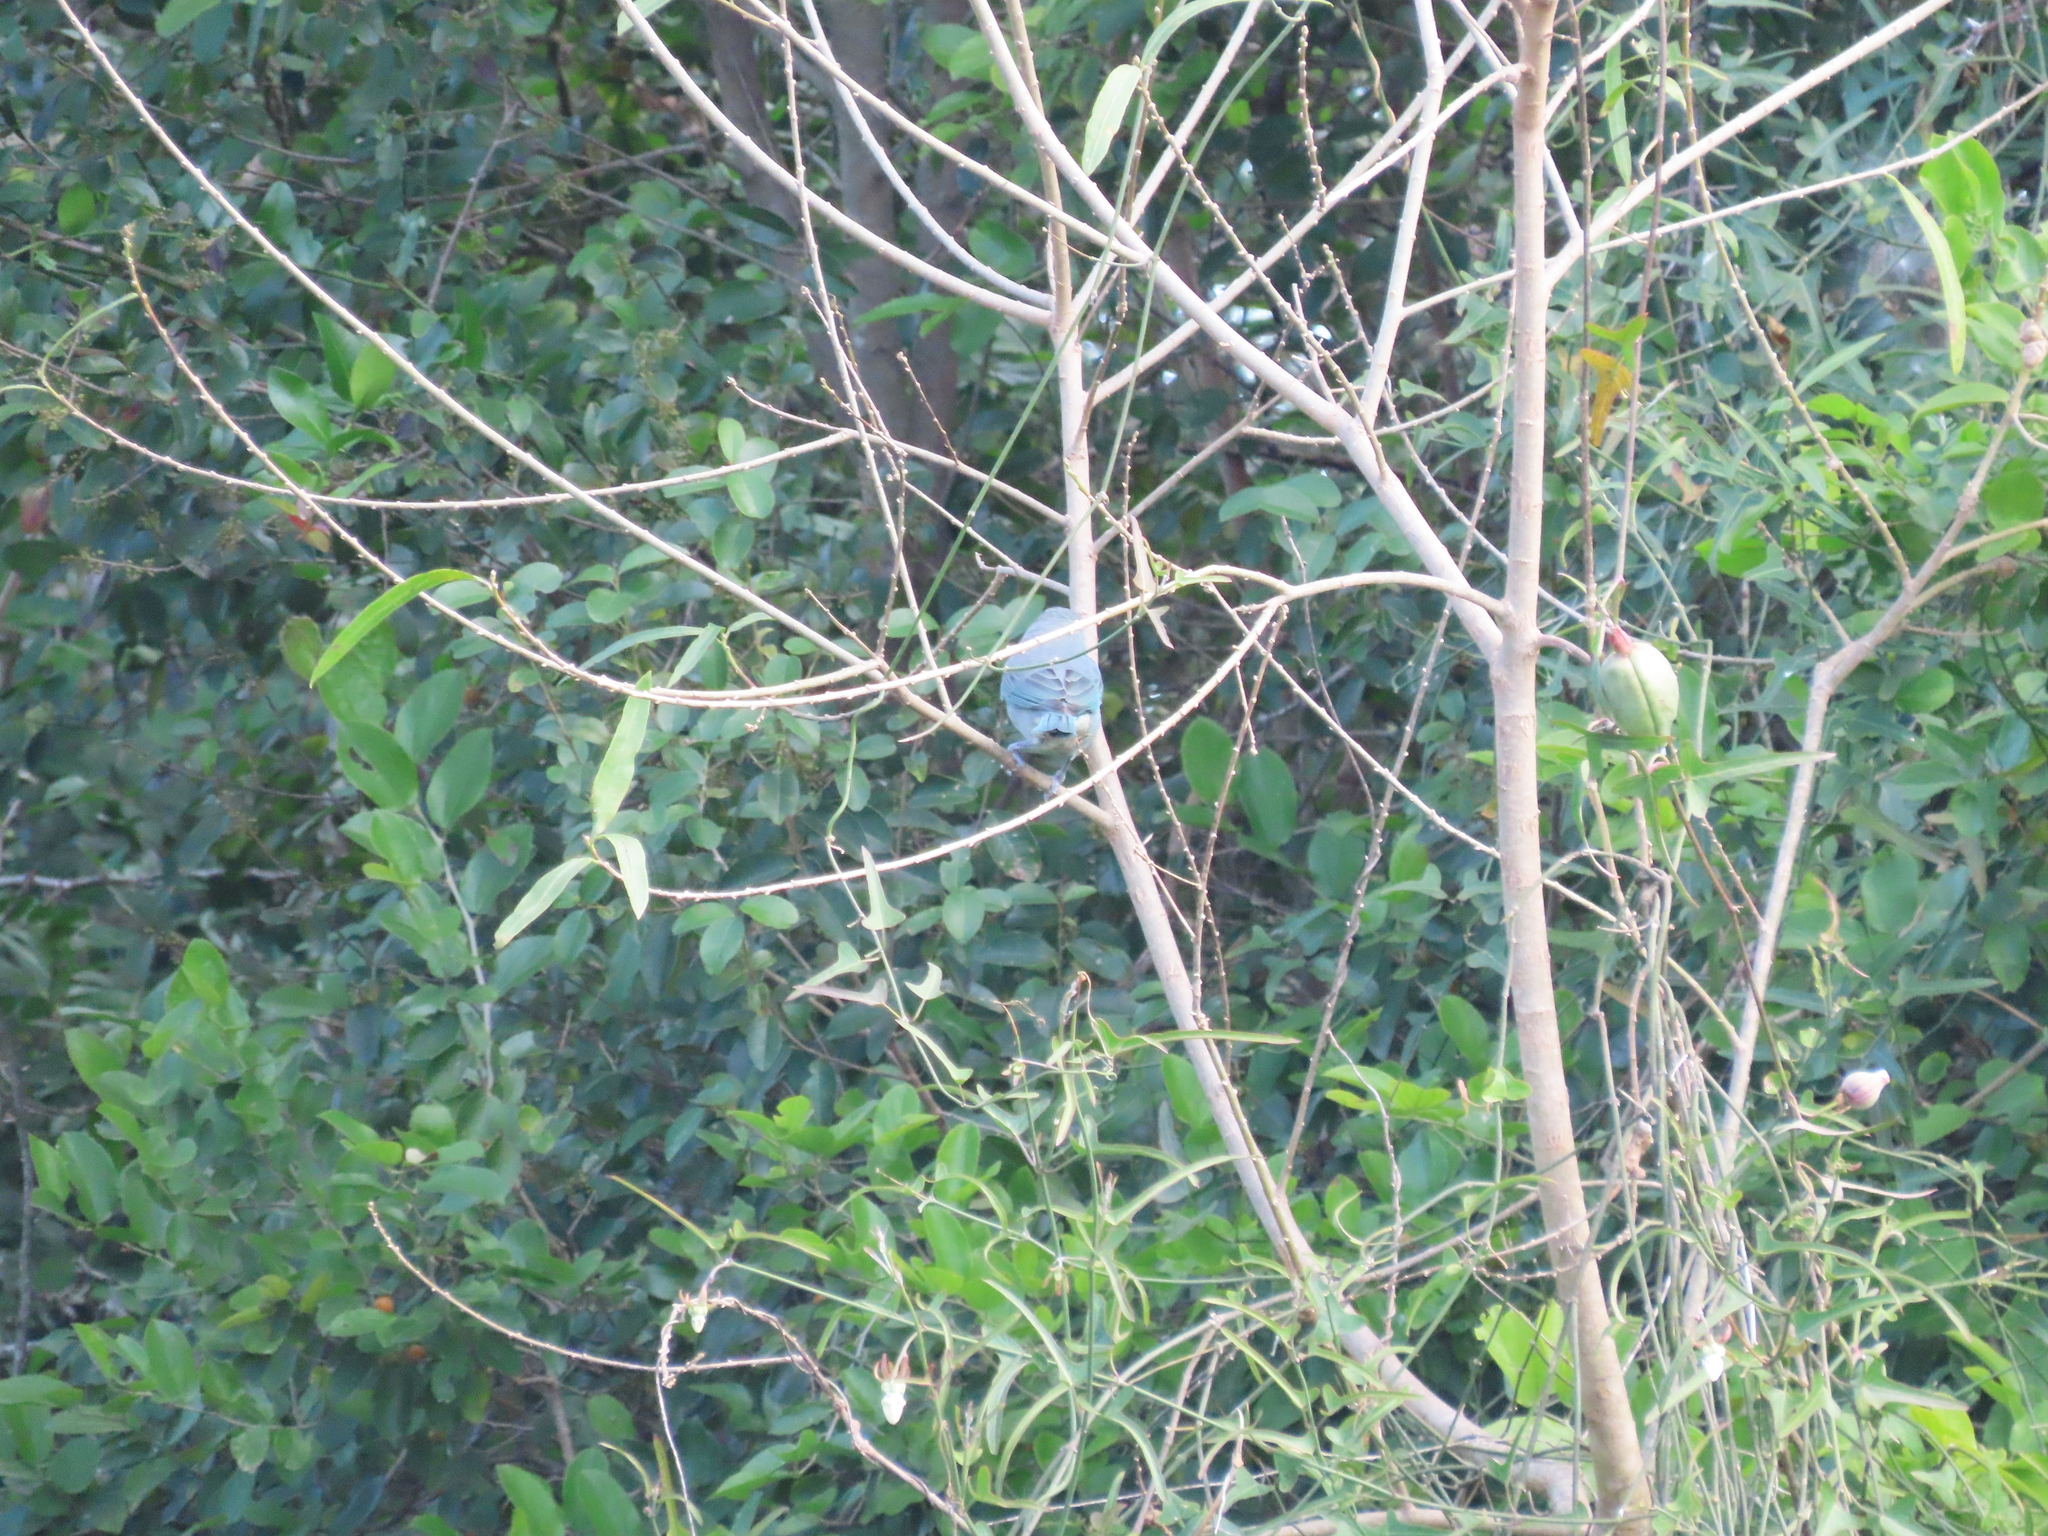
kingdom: Animalia
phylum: Chordata
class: Aves
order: Passeriformes
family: Thraupidae
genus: Thraupis
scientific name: Thraupis sayaca
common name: Sayaca tanager
